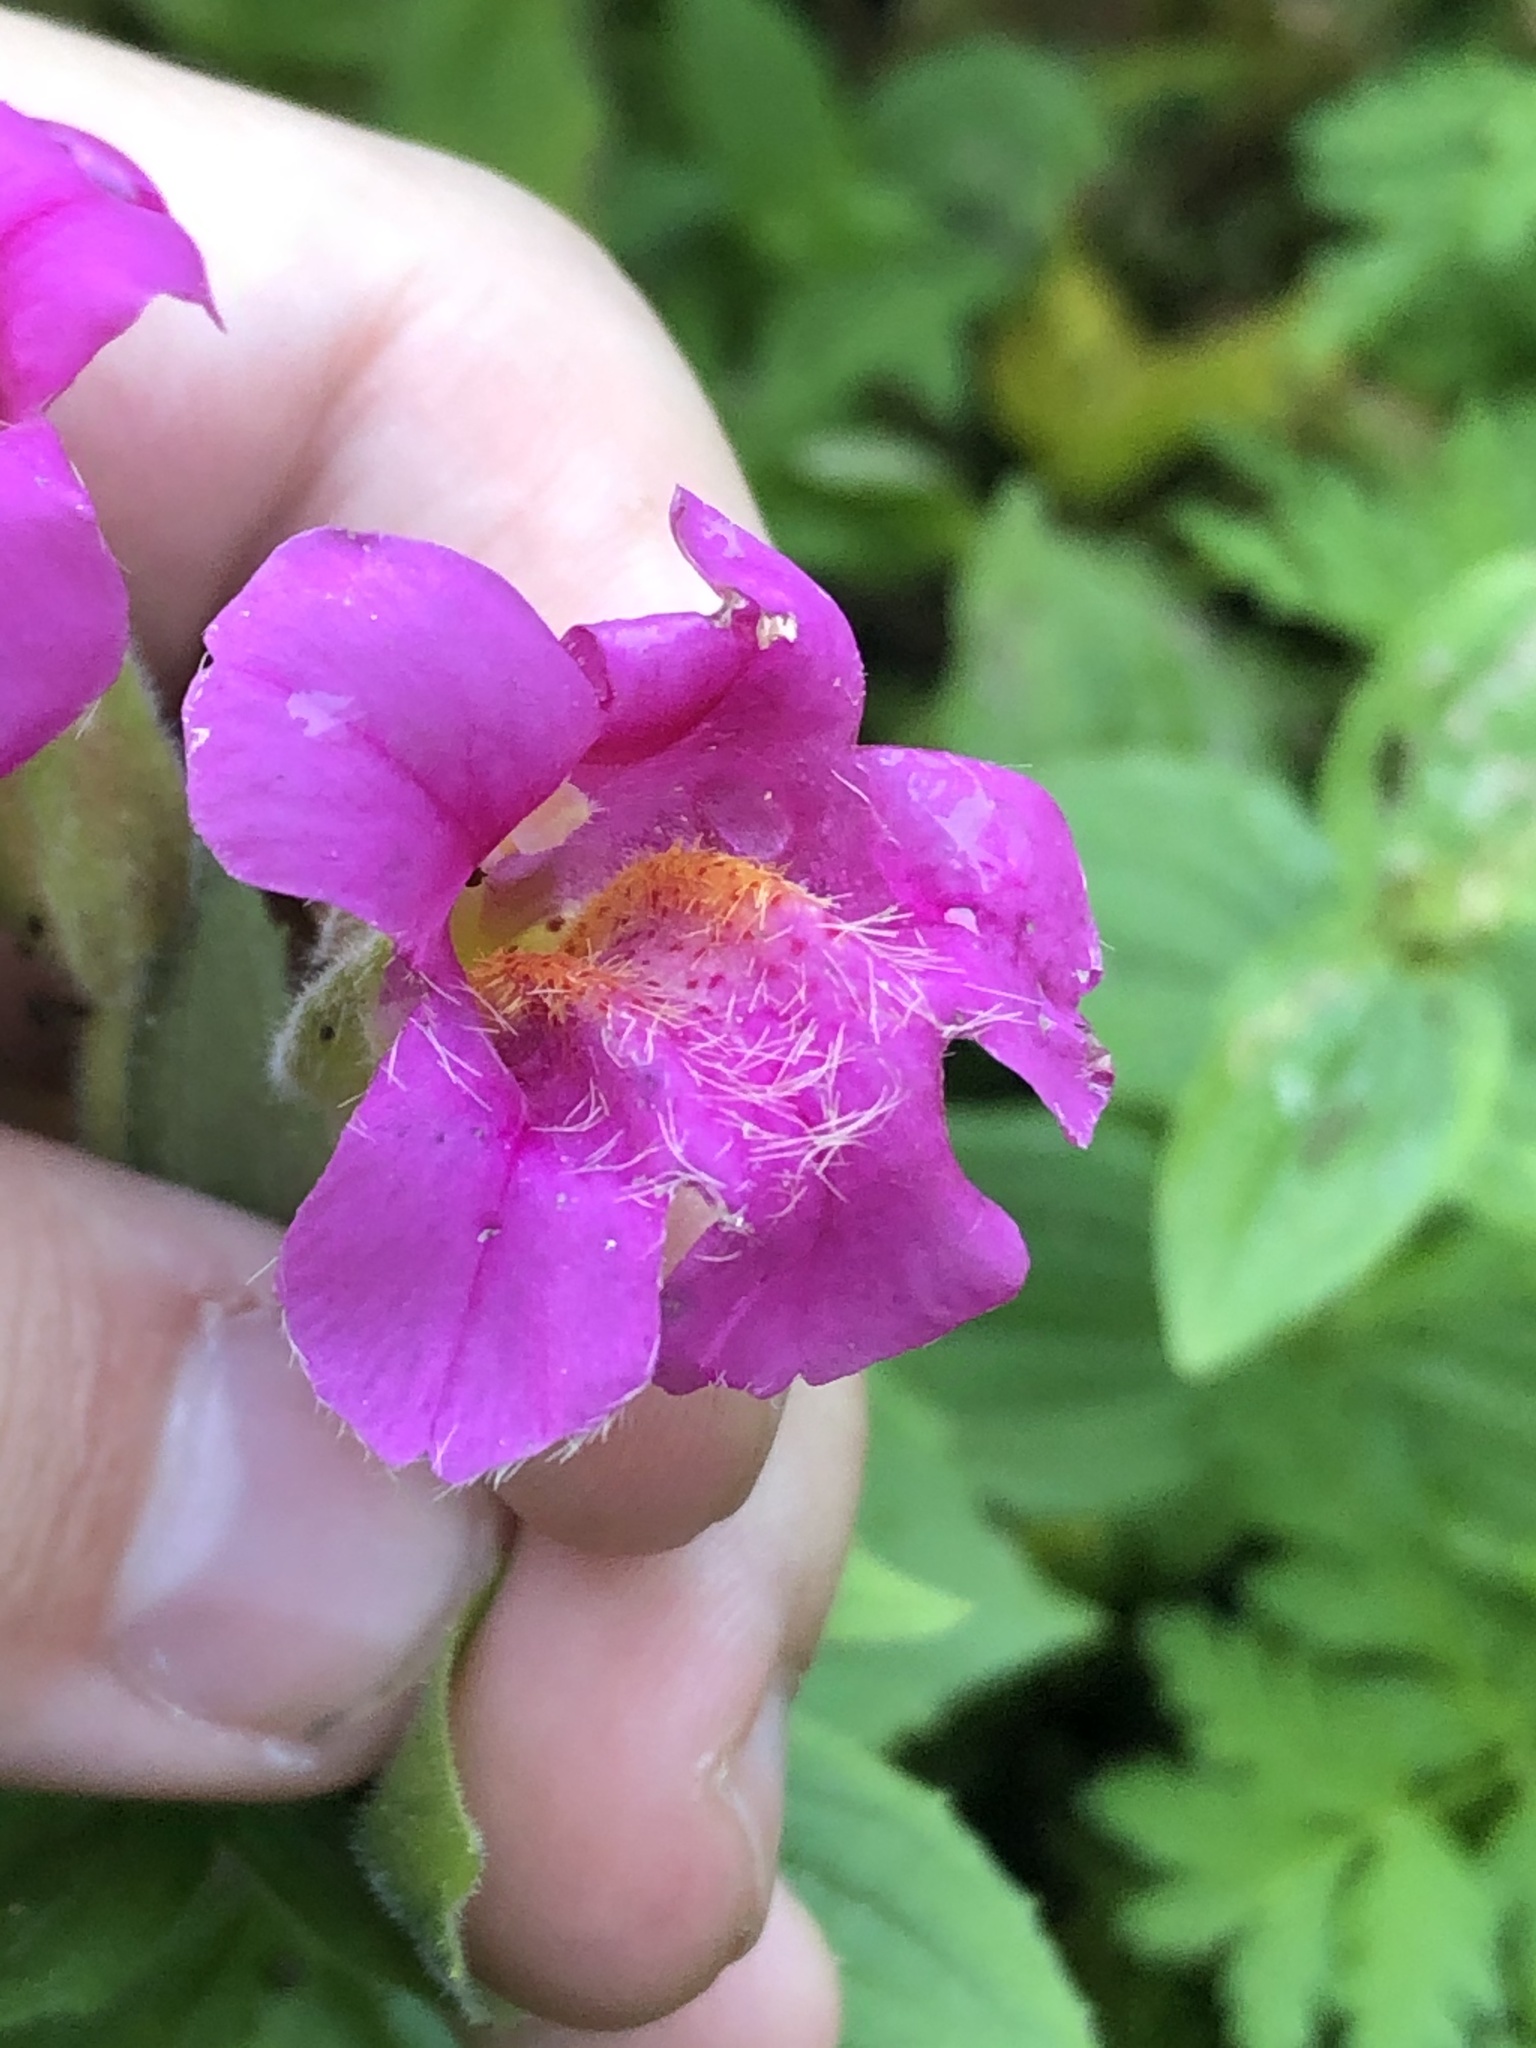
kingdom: Plantae
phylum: Tracheophyta
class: Magnoliopsida
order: Lamiales
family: Phrymaceae
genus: Erythranthe
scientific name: Erythranthe lewisii
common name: Lewis's monkey-flower
